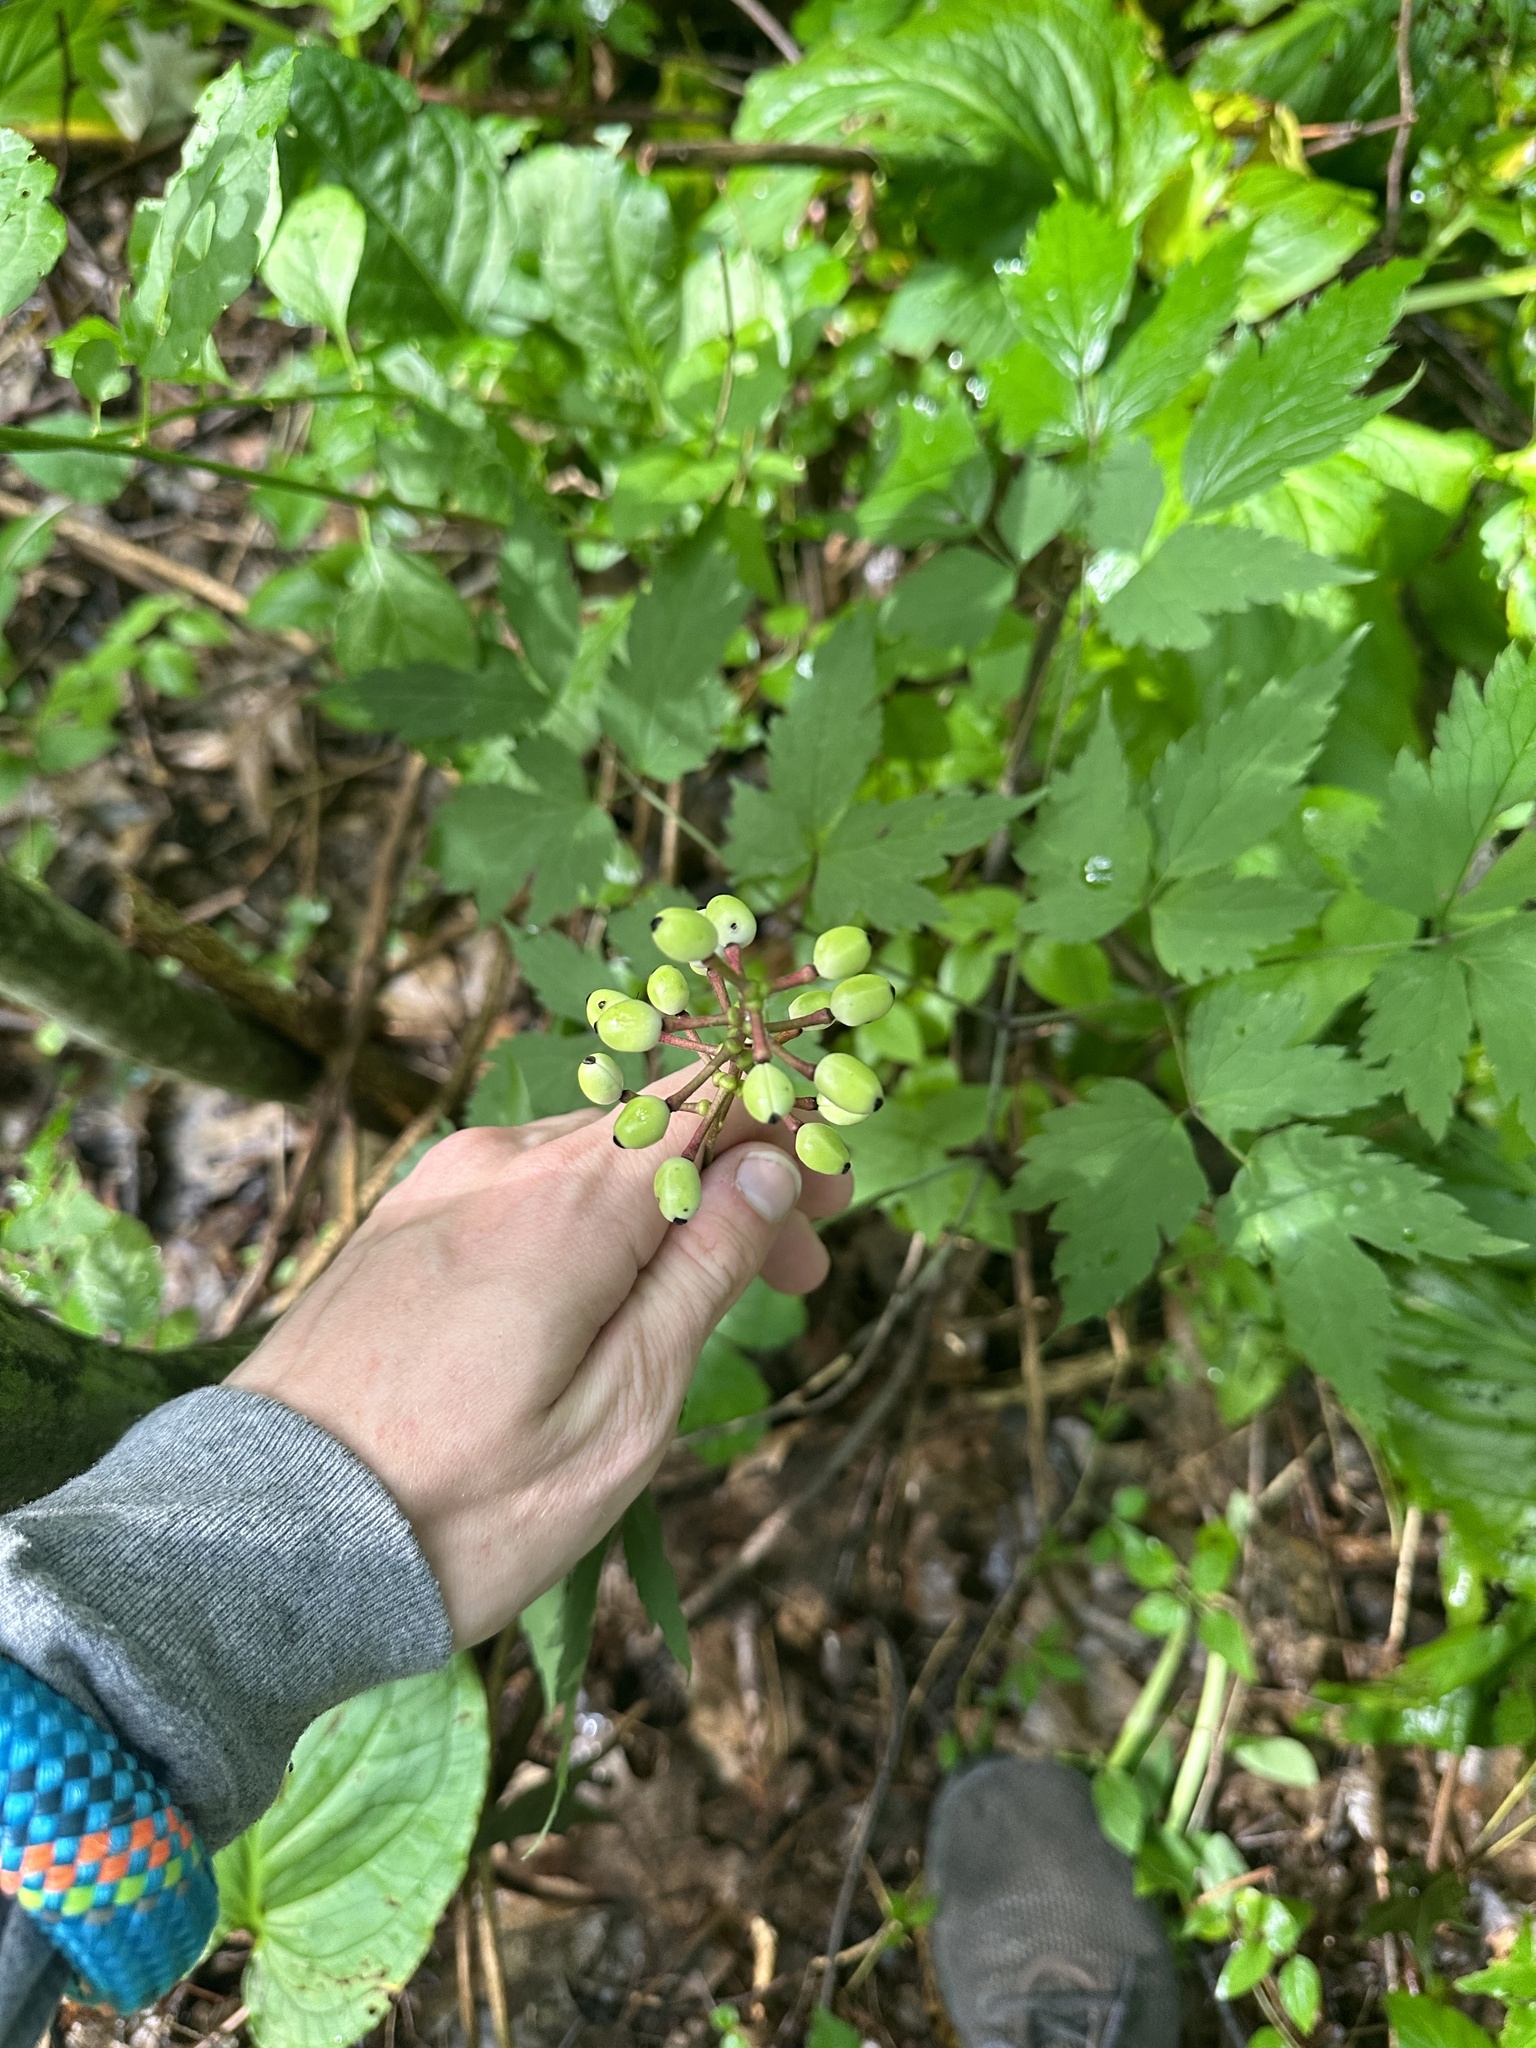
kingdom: Plantae
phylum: Tracheophyta
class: Magnoliopsida
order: Ranunculales
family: Ranunculaceae
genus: Actaea
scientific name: Actaea pachypoda
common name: Doll's-eyes
